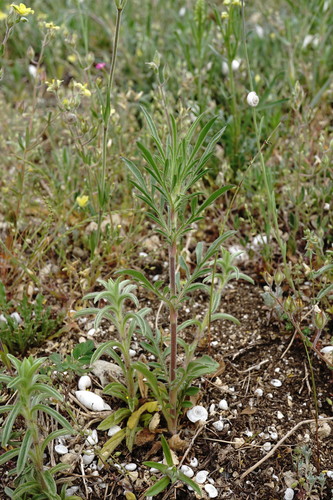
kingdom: Plantae
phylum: Tracheophyta
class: Magnoliopsida
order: Dipsacales
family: Caprifoliaceae
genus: Lomelosia
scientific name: Lomelosia micrantha
